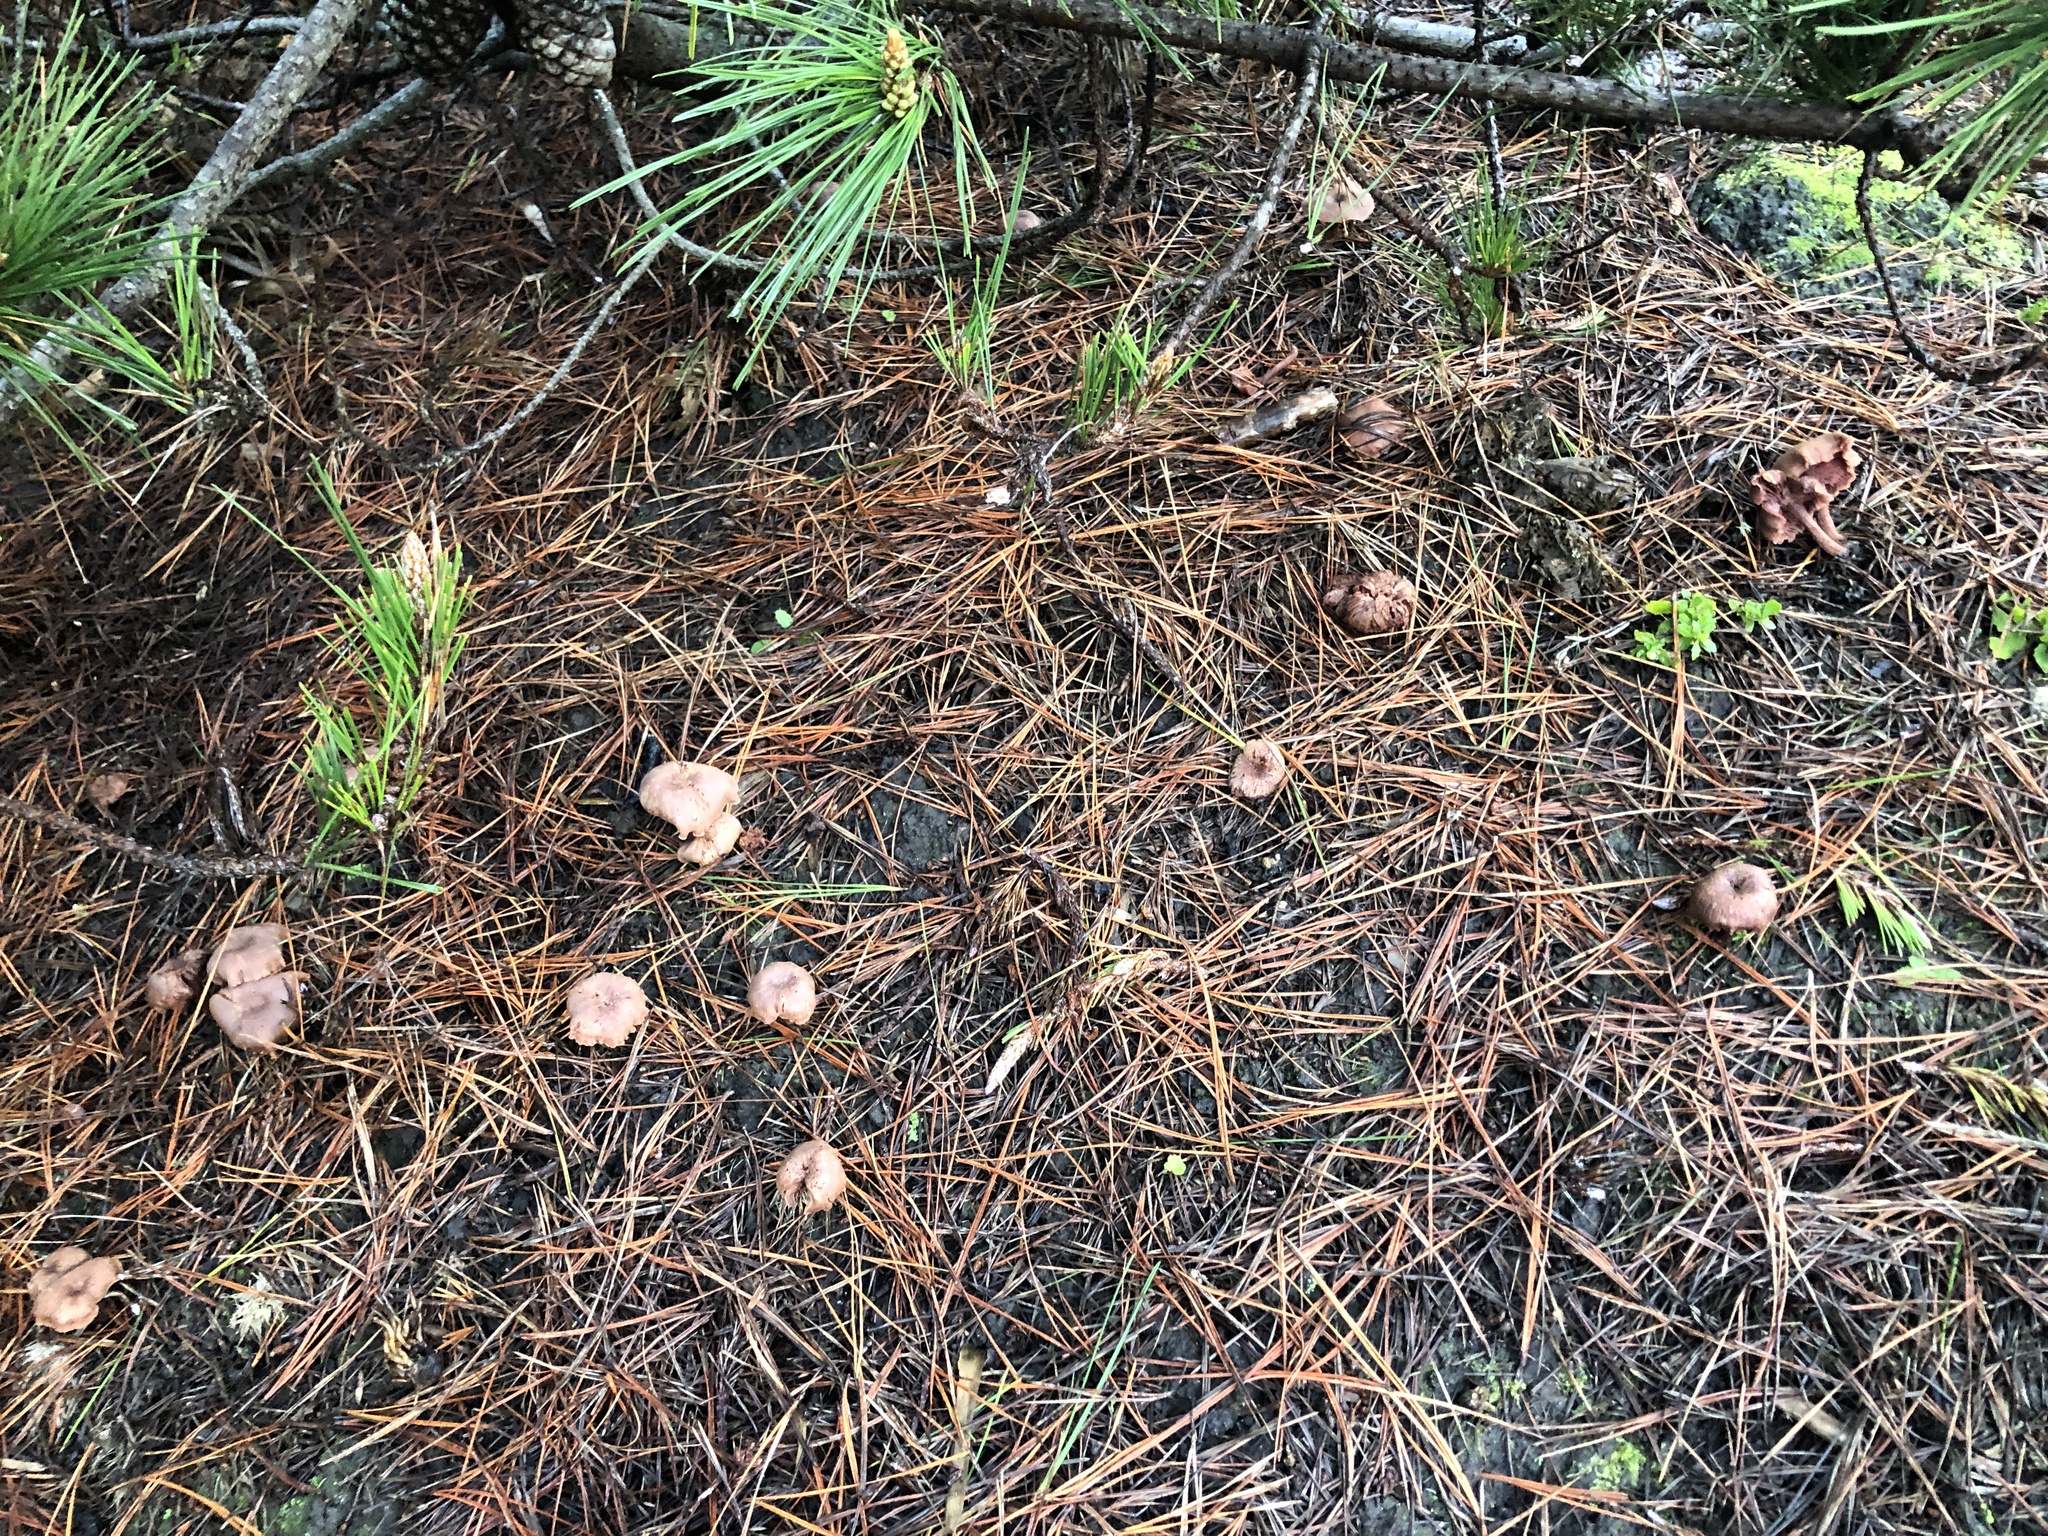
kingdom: Fungi
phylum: Basidiomycota
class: Agaricomycetes
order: Agaricales
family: Hydnangiaceae
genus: Laccaria
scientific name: Laccaria amethysteo-occidentalis
